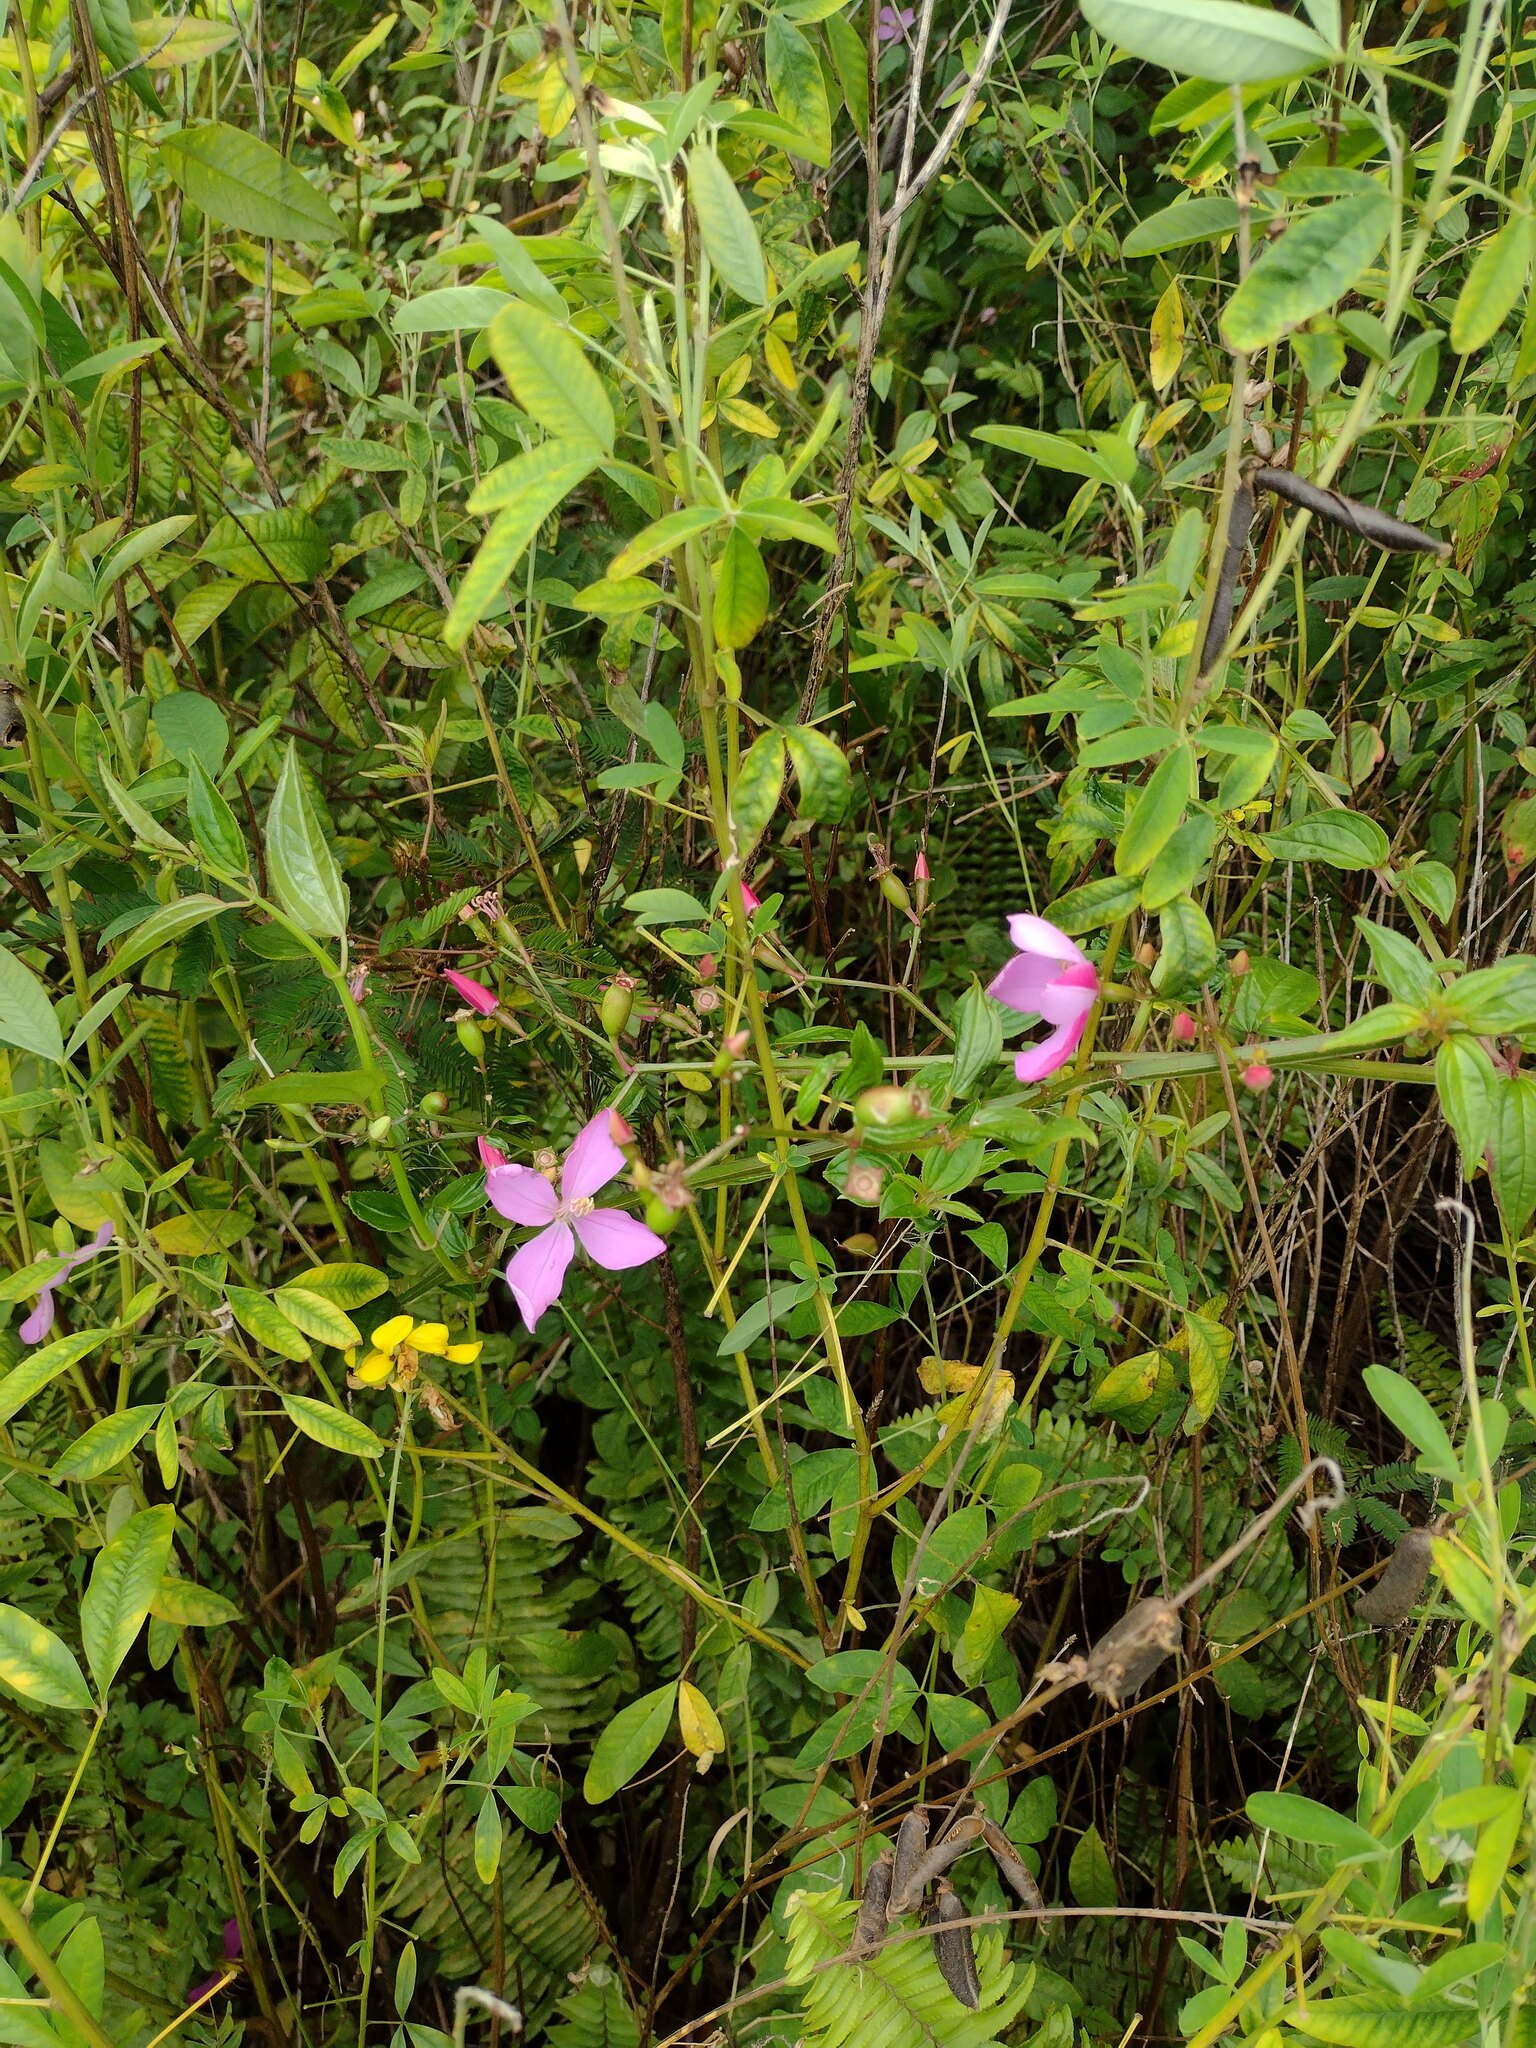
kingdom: Plantae
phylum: Tracheophyta
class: Magnoliopsida
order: Myrtales
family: Melastomataceae
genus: Arthrostemma
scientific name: Arthrostemma ciliatum
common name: Everblooming eavender
